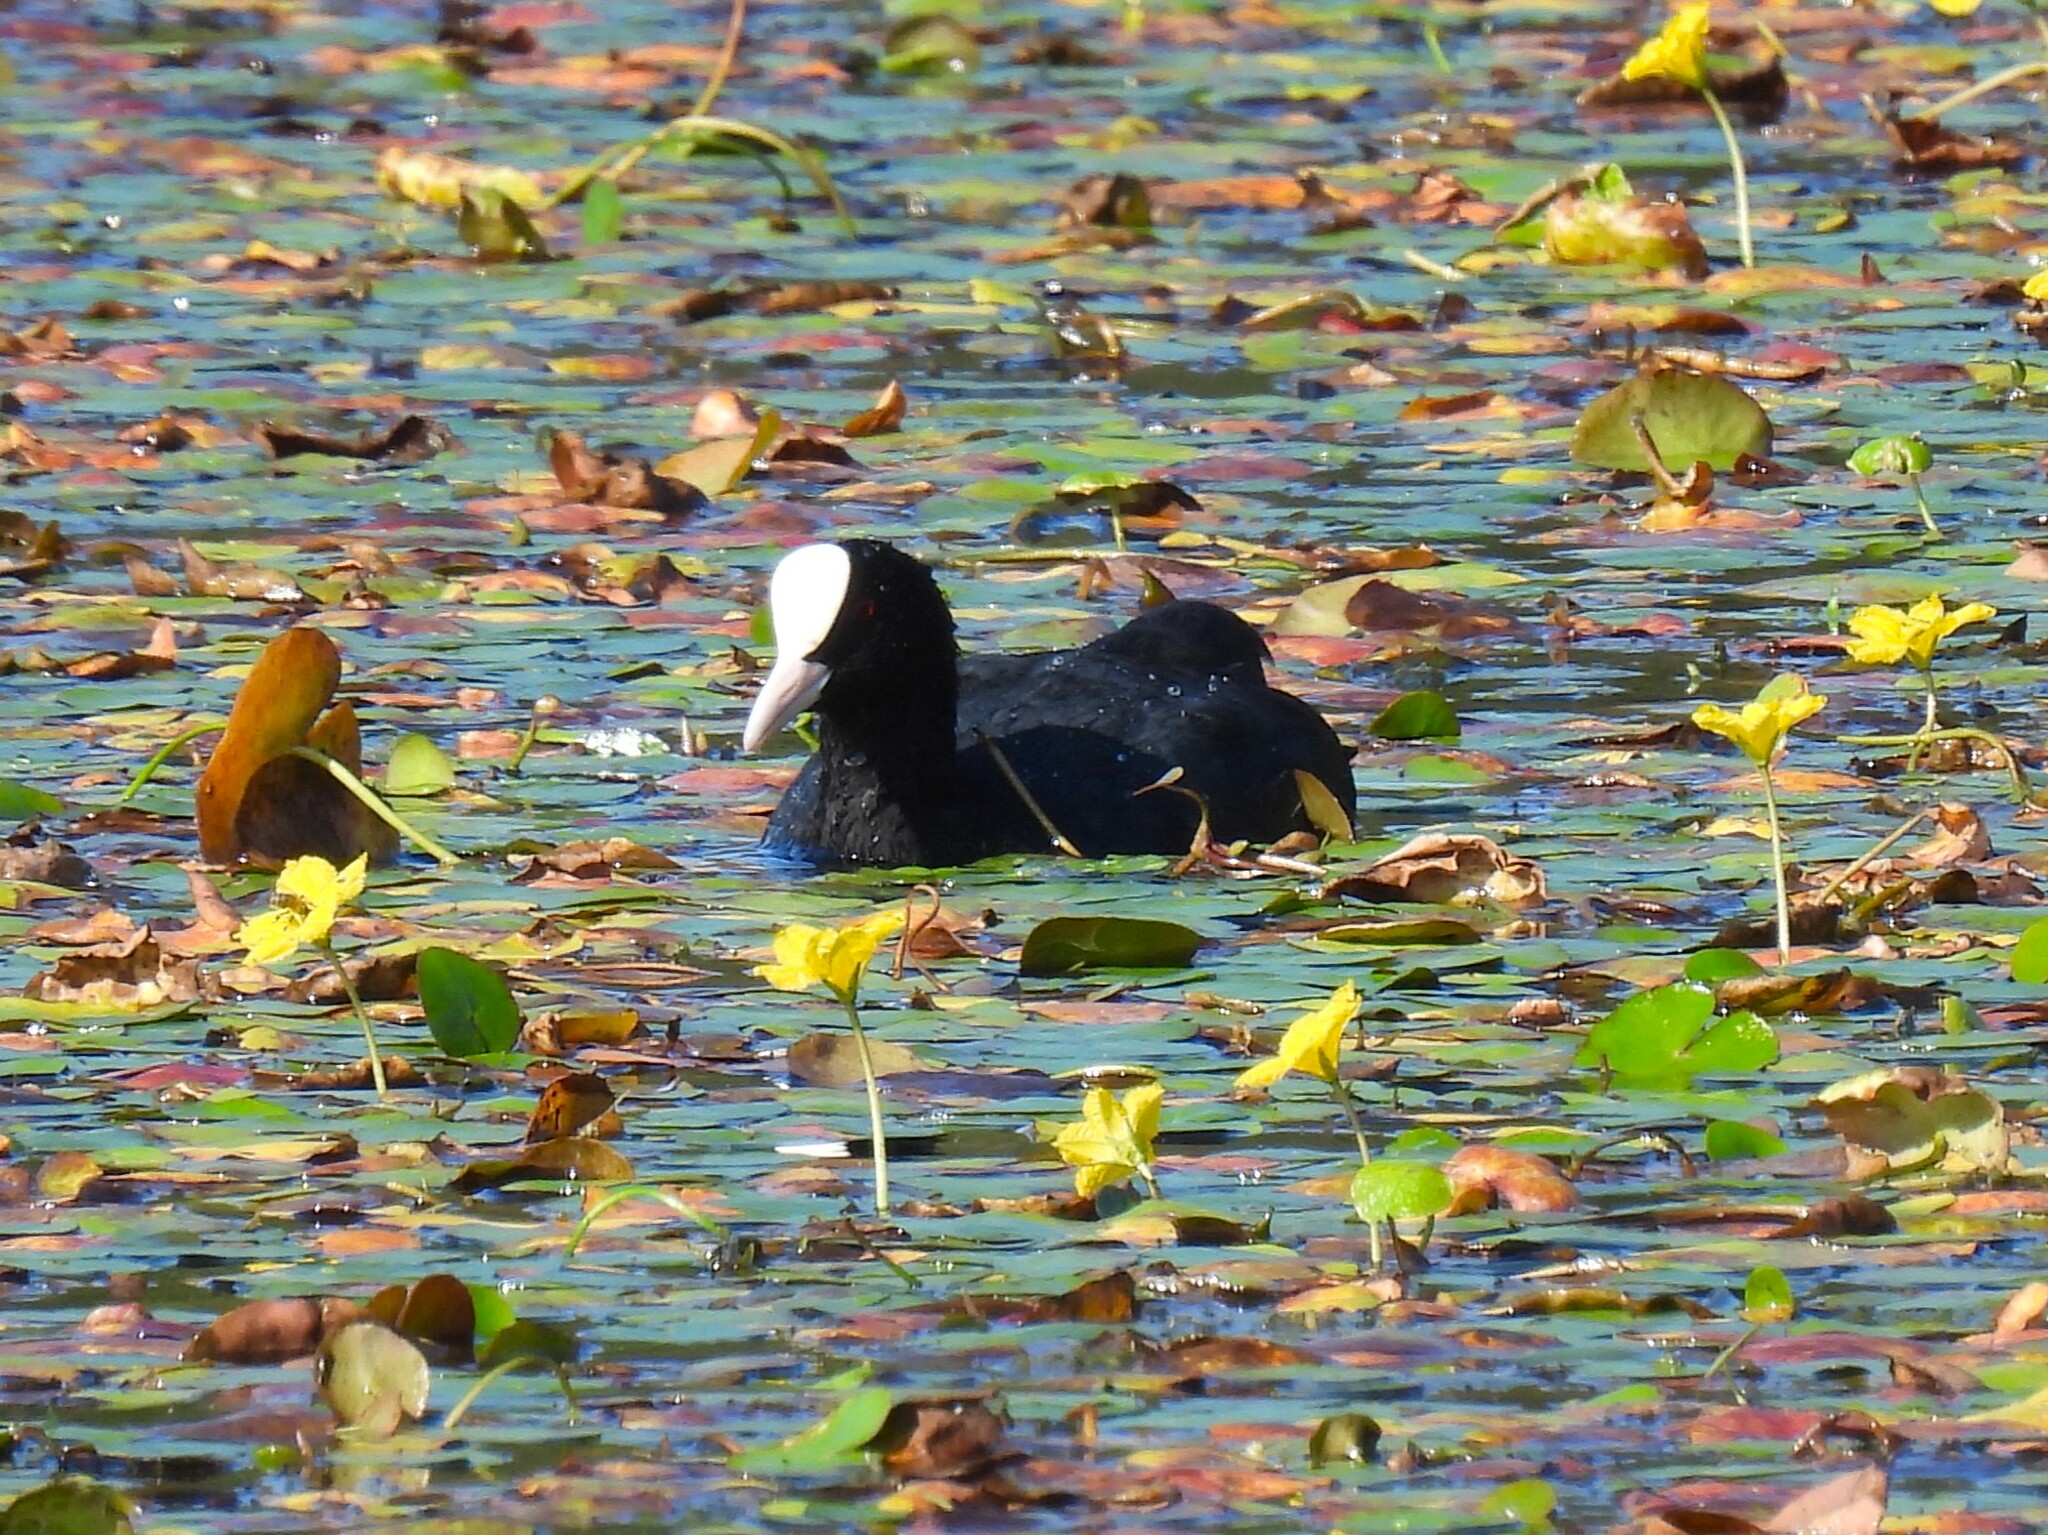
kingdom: Animalia
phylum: Chordata
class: Aves
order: Gruiformes
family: Rallidae
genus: Fulica
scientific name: Fulica atra
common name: Eurasian coot
